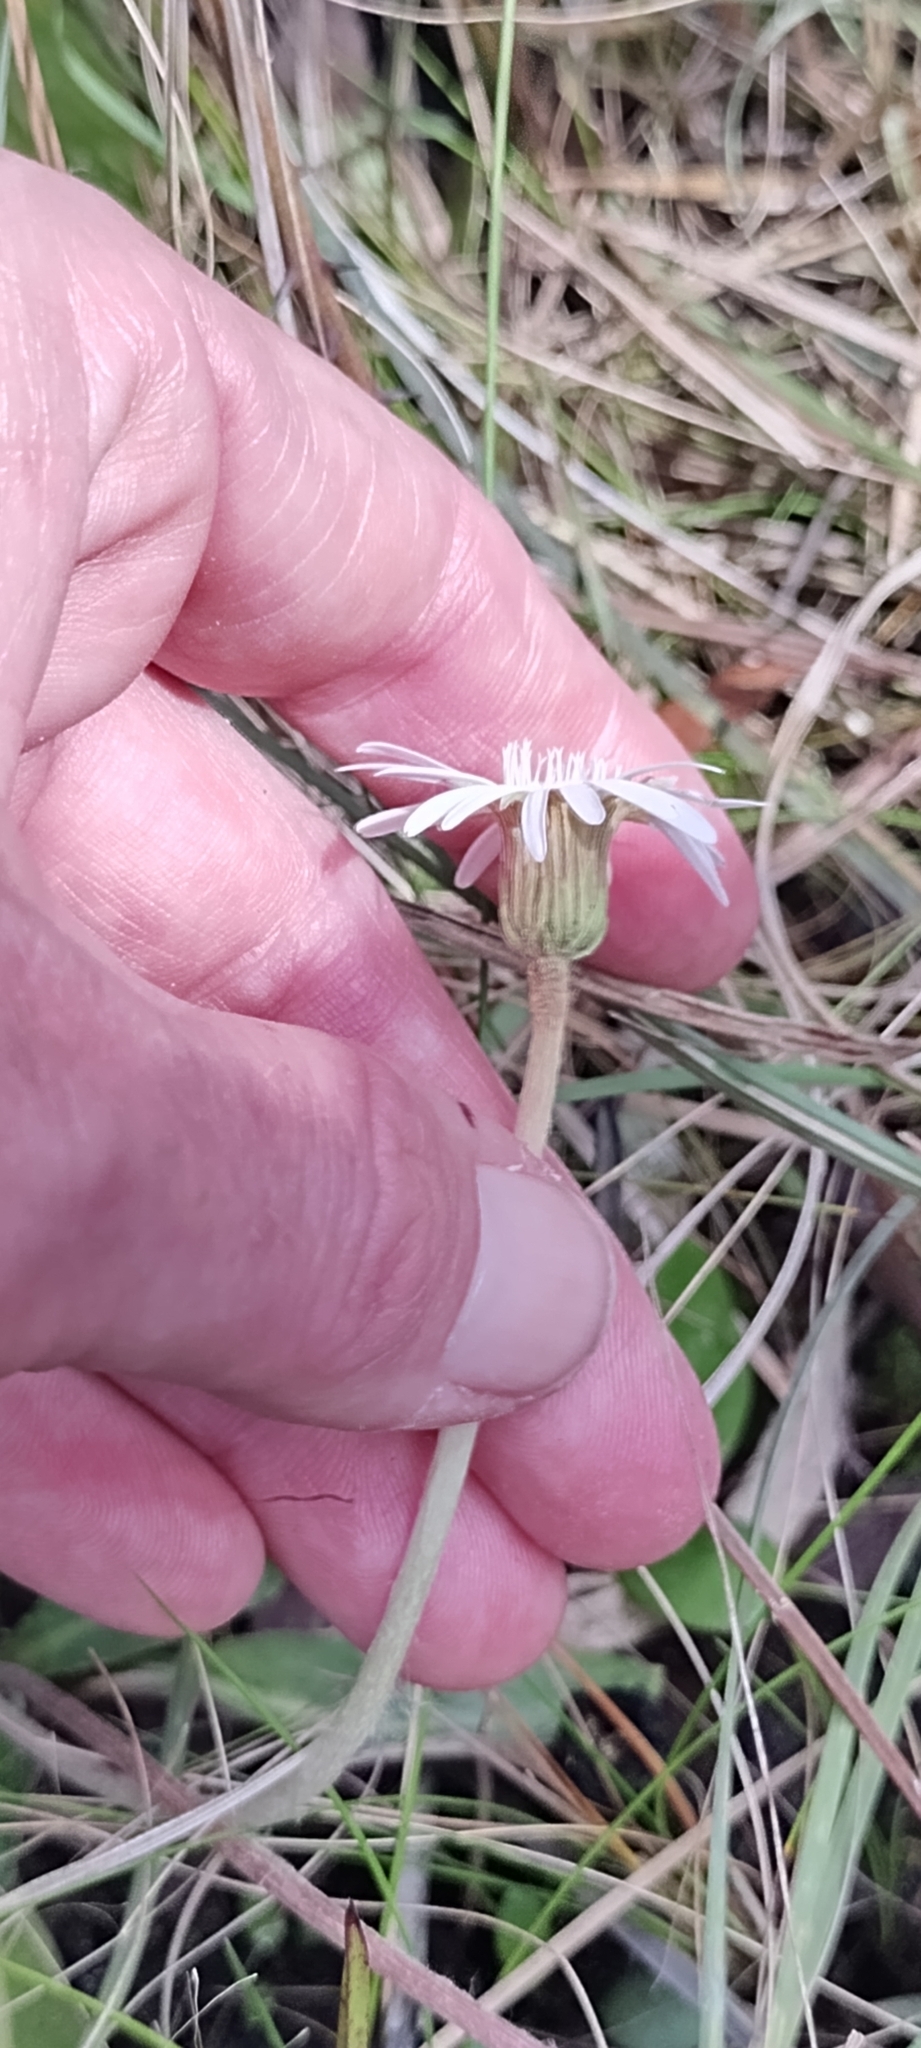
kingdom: Plantae
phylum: Tracheophyta
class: Magnoliopsida
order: Asterales
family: Asteraceae
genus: Chaptalia
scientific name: Chaptalia tomentosa
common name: Woolly sunbonnet
